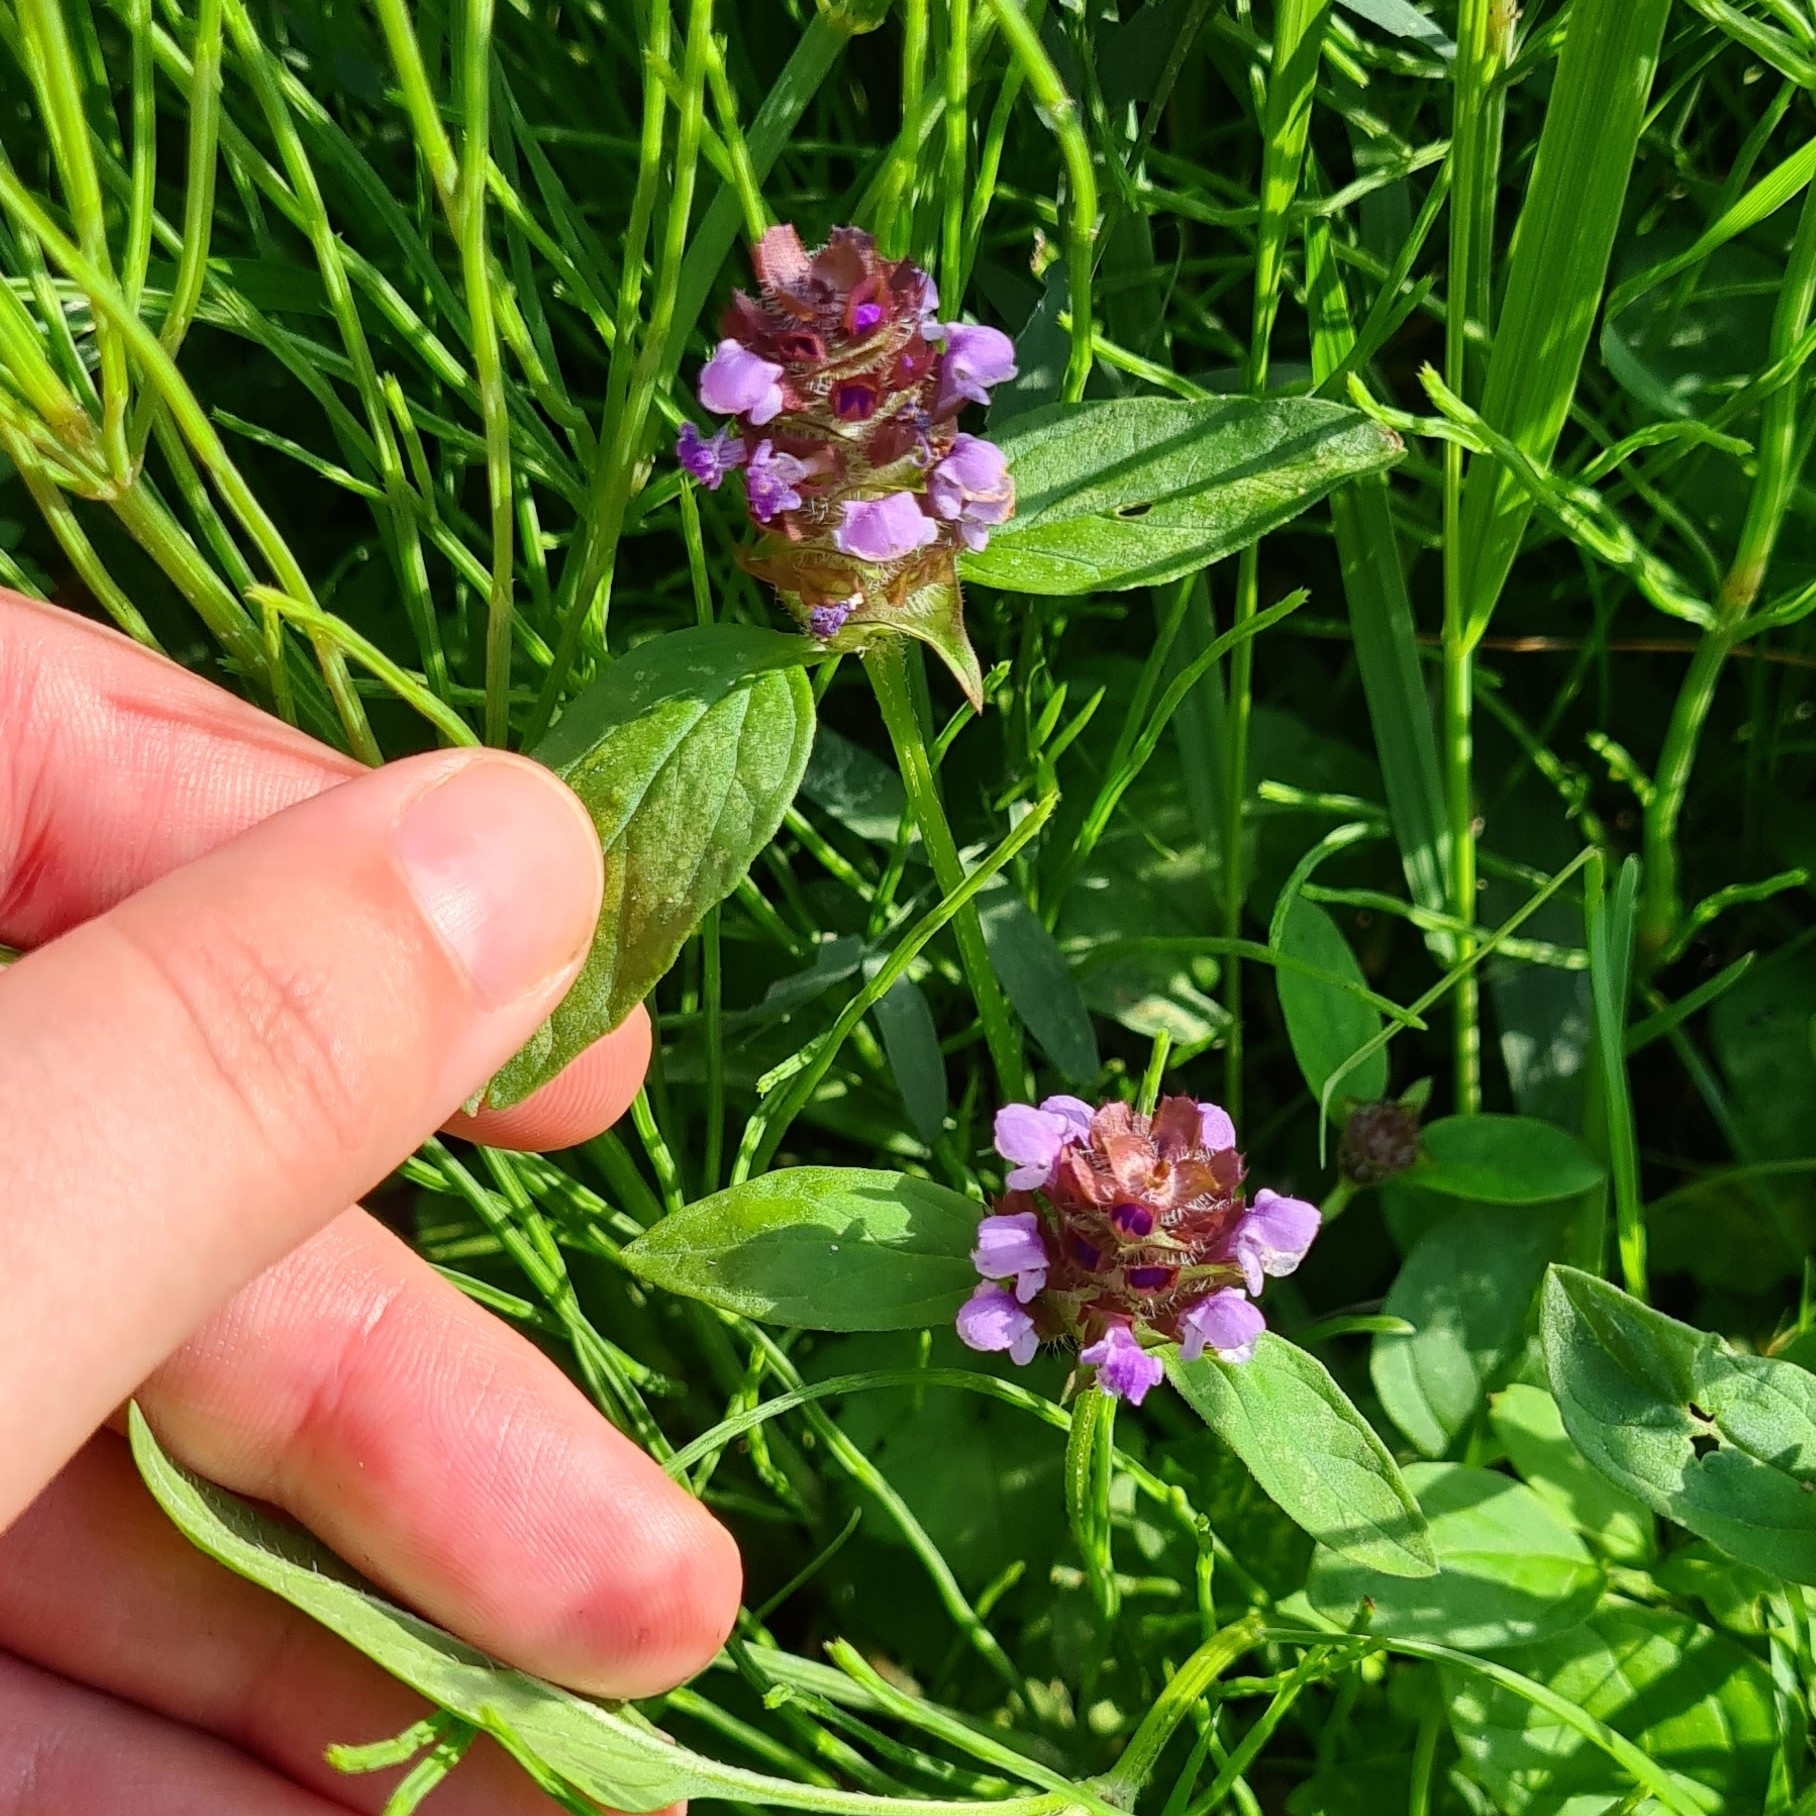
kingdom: Plantae
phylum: Tracheophyta
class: Magnoliopsida
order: Lamiales
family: Lamiaceae
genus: Prunella
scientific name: Prunella vulgaris
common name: Heal-all
